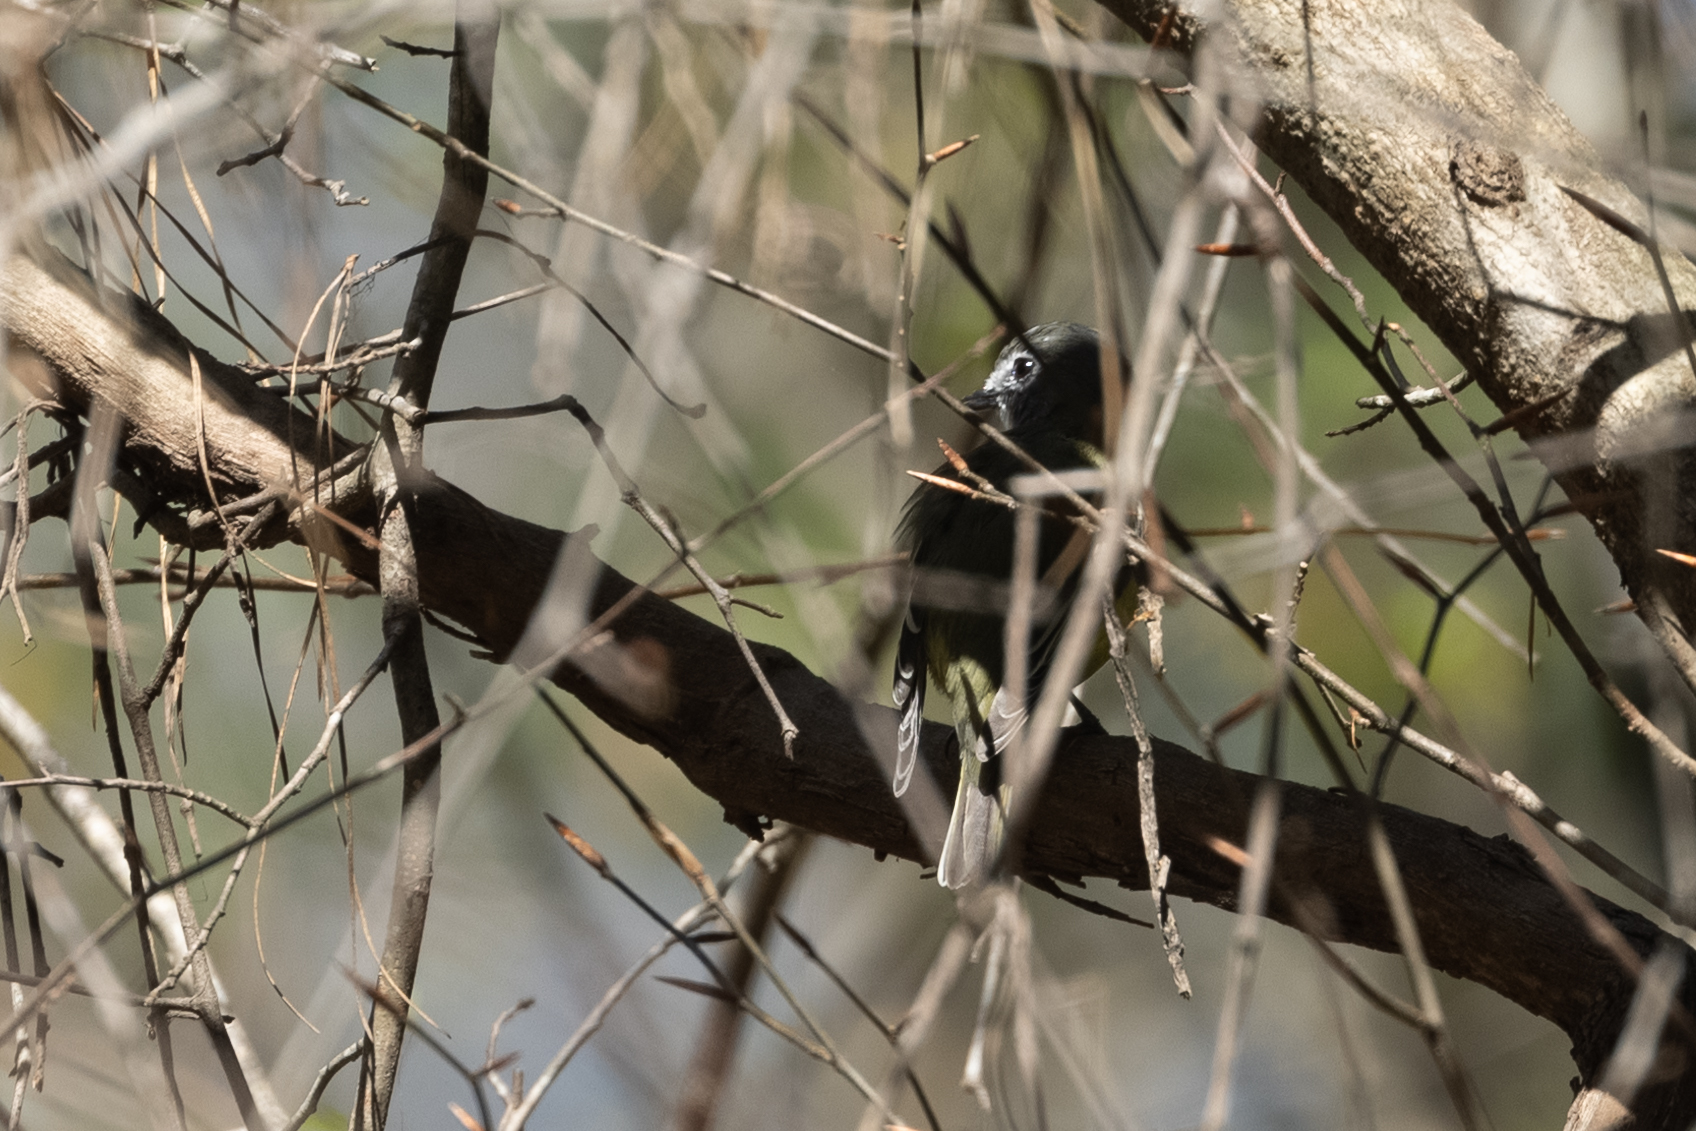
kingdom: Animalia
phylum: Chordata
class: Aves
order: Passeriformes
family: Vireonidae
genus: Vireo
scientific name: Vireo solitarius
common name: Blue-headed vireo
